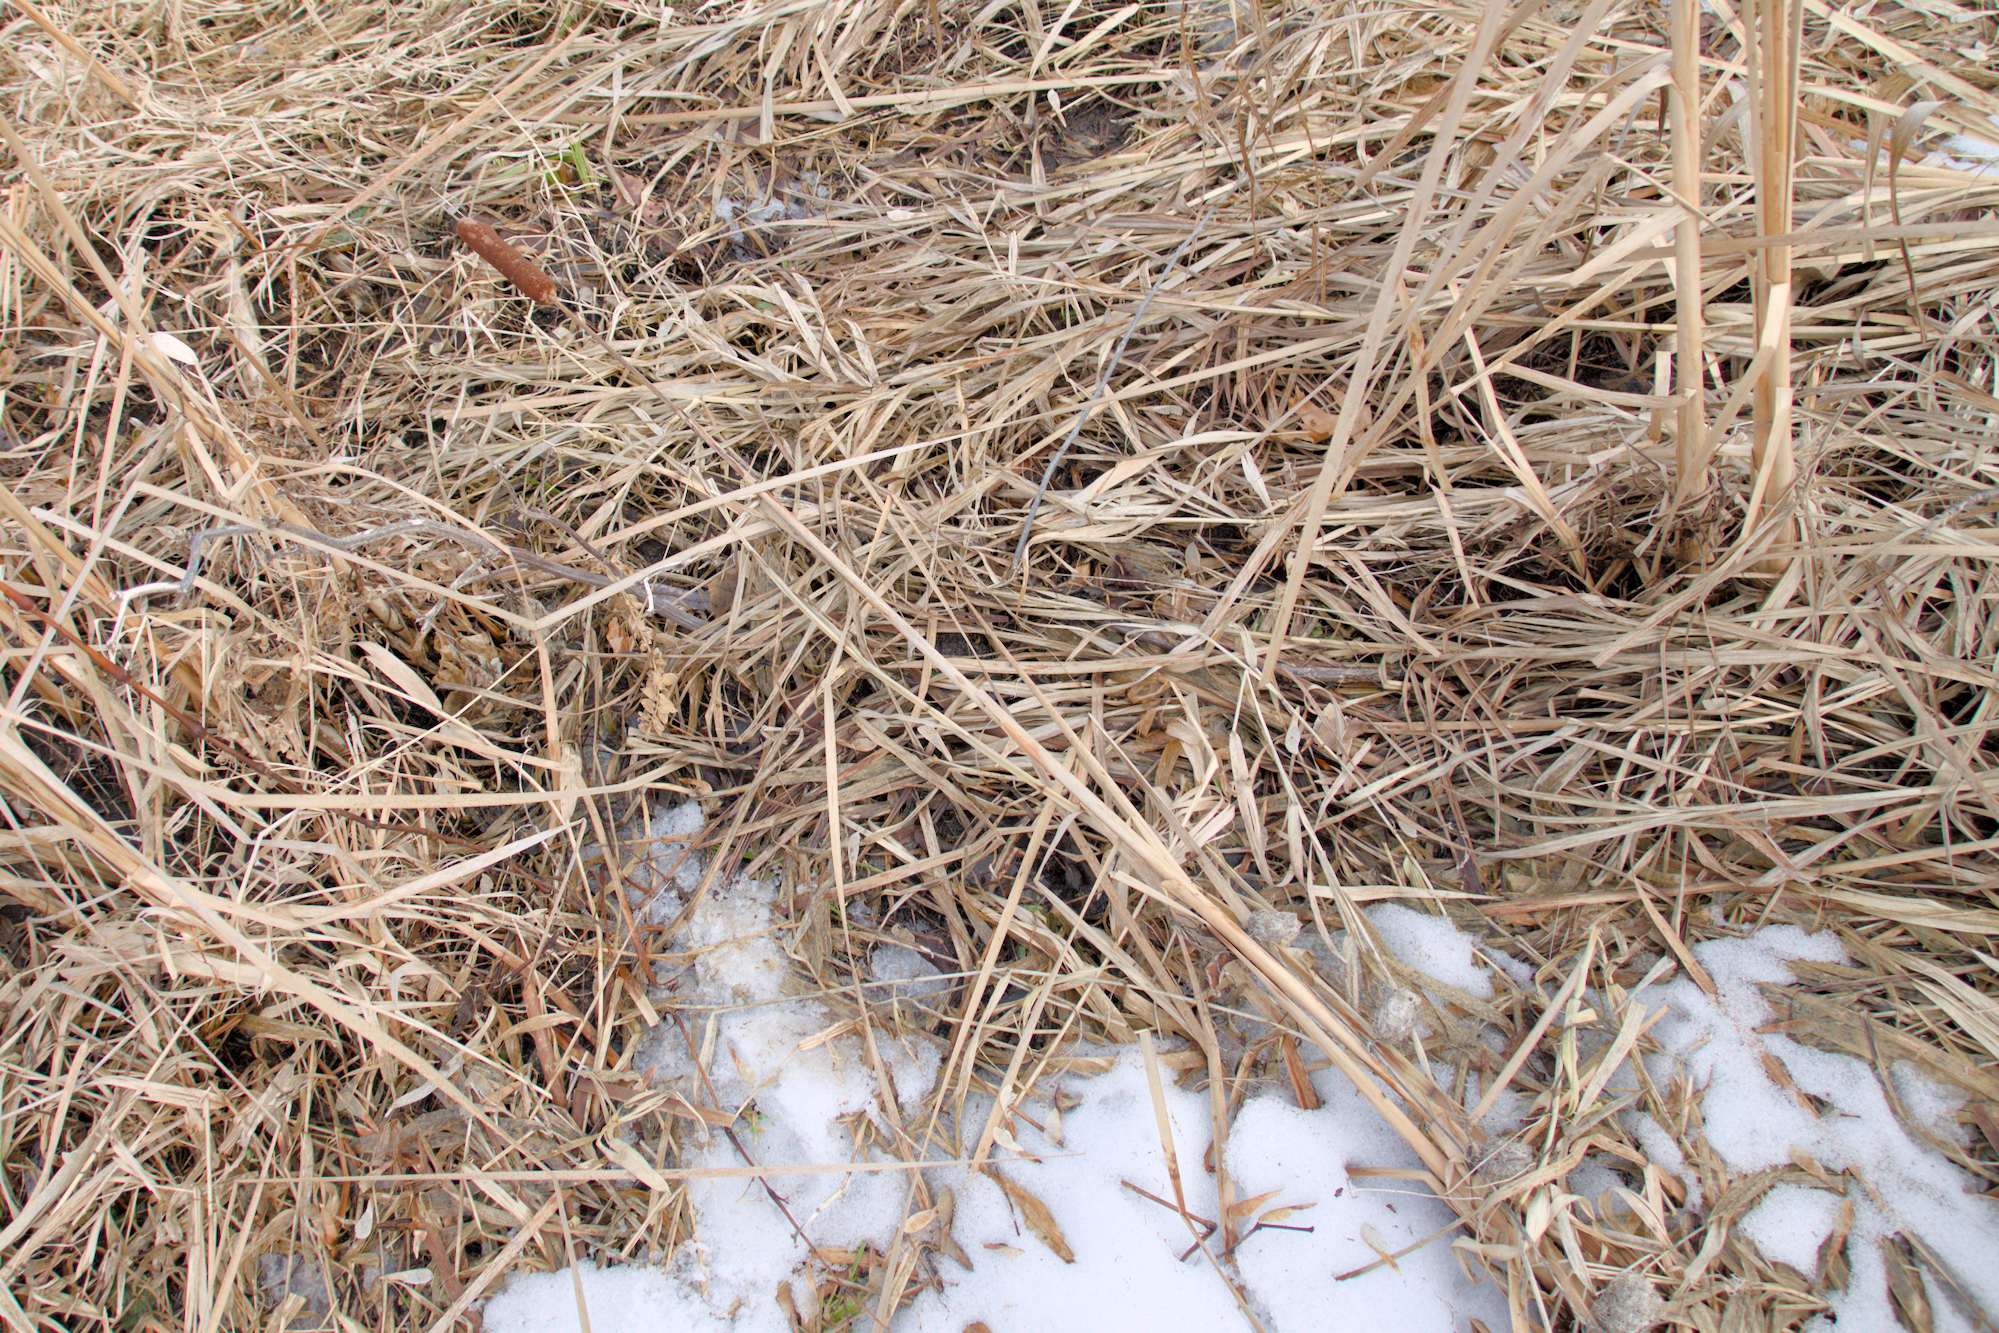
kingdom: Plantae
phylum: Tracheophyta
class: Liliopsida
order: Poales
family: Typhaceae
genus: Typha
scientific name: Typha angustifolia
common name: Lesser bulrush
